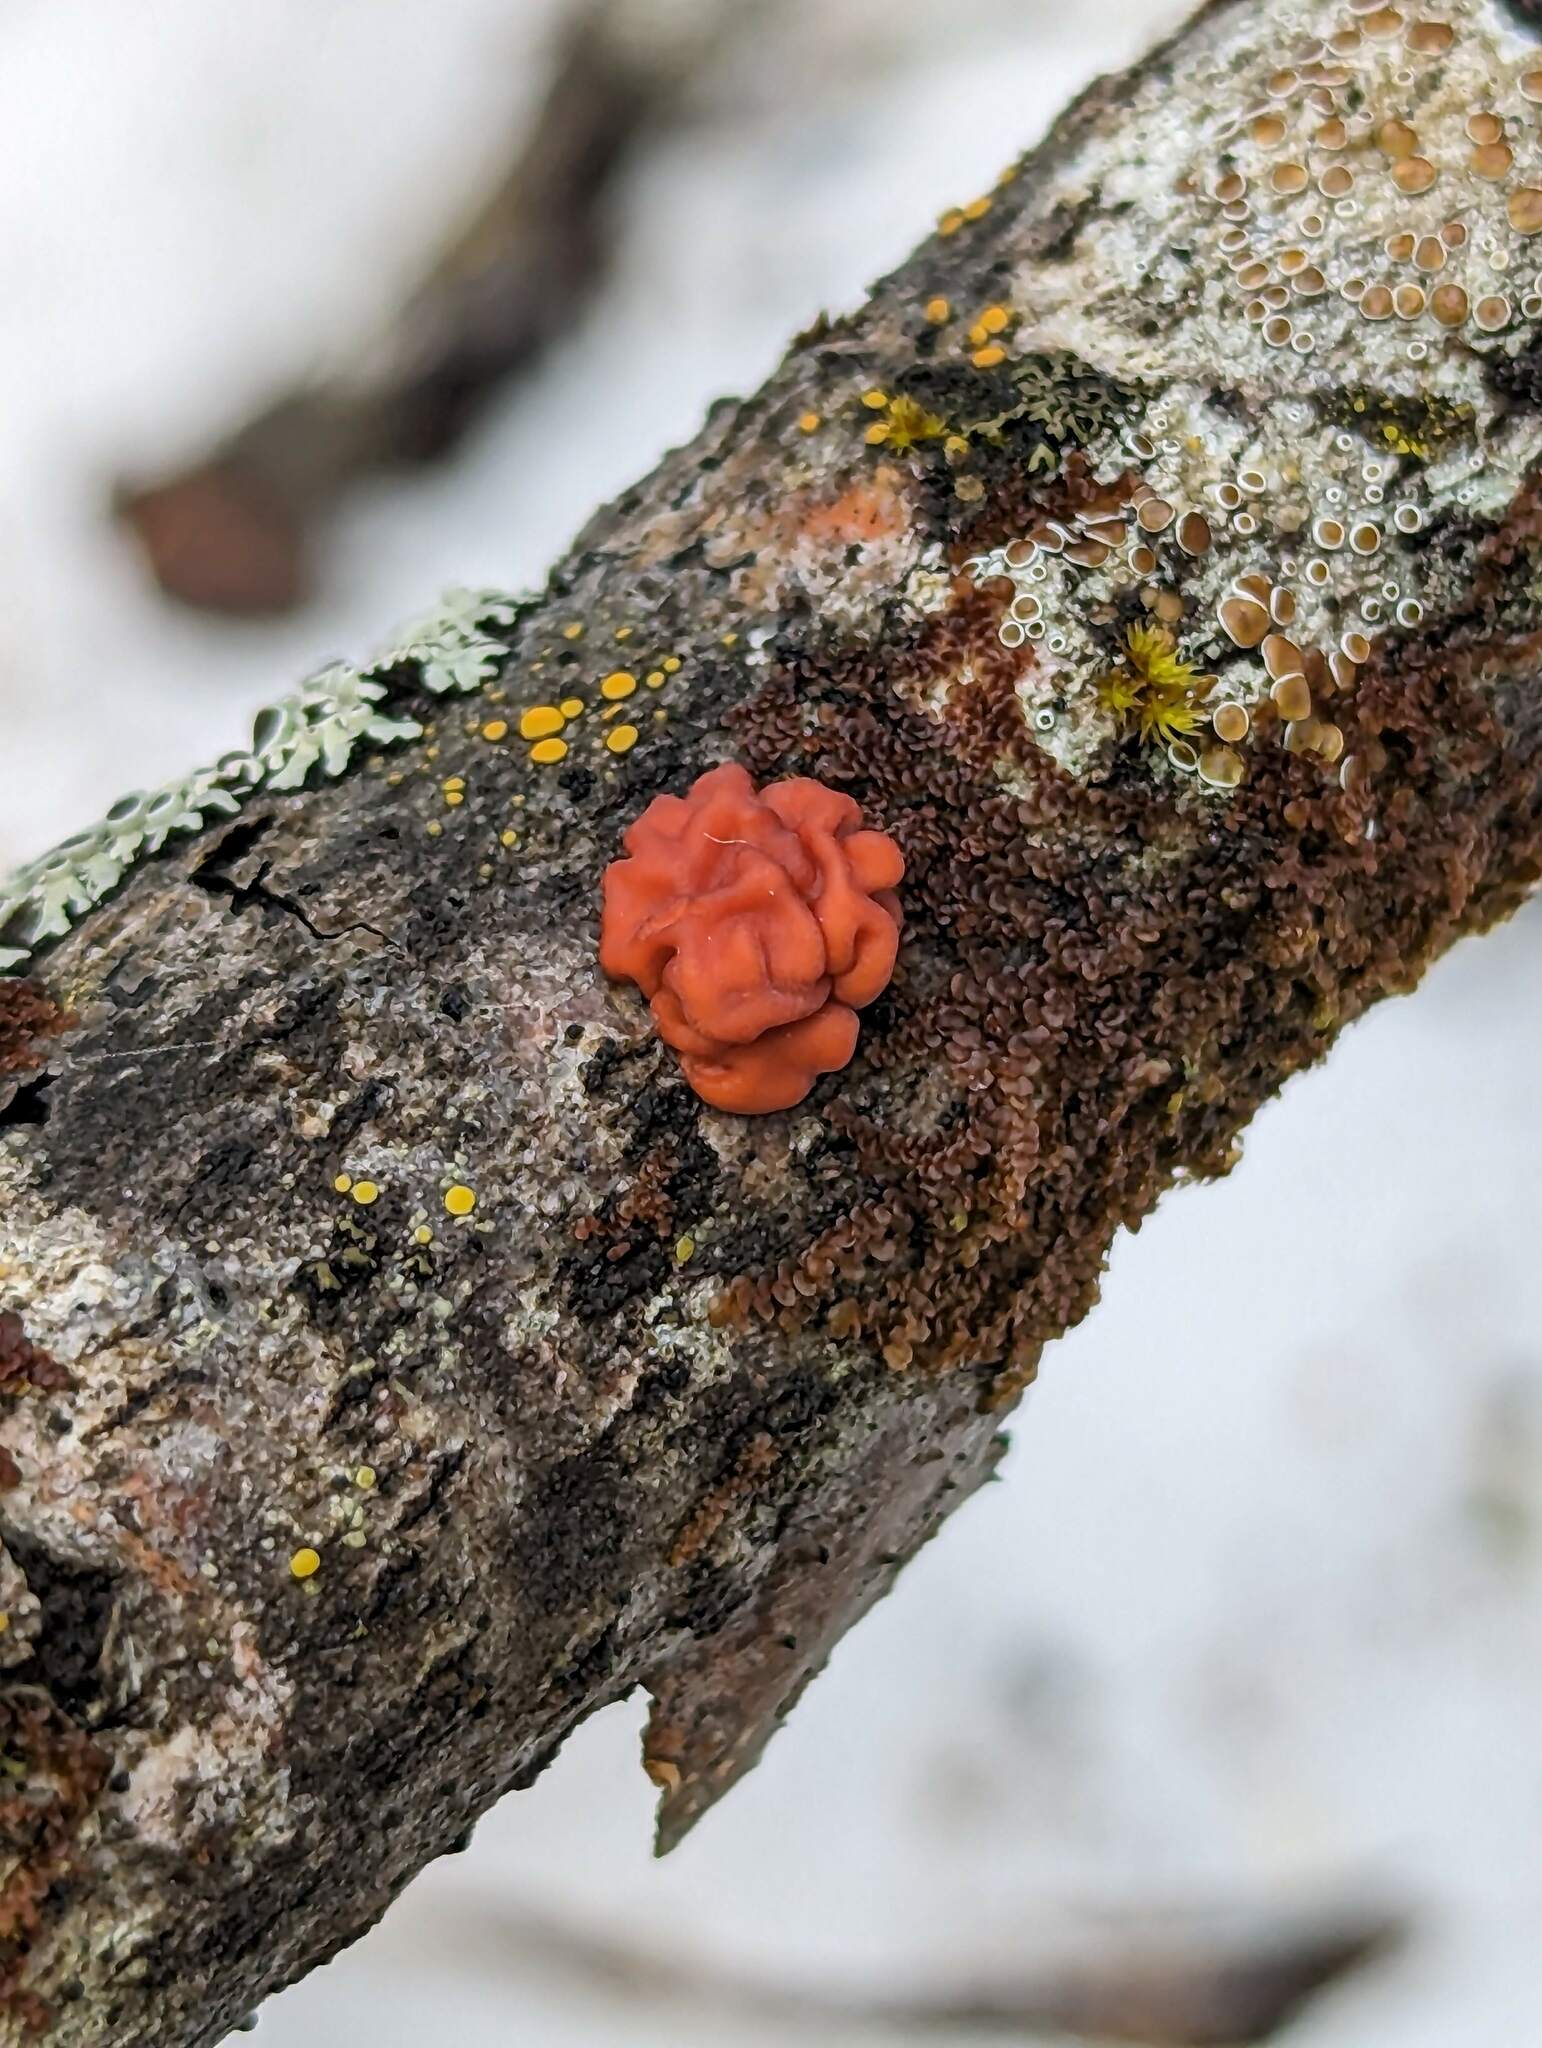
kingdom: Fungi
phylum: Basidiomycota
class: Agaricomycetes
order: Russulales
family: Peniophoraceae
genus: Peniophora
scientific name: Peniophora rufa
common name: Red tree brain fungus
